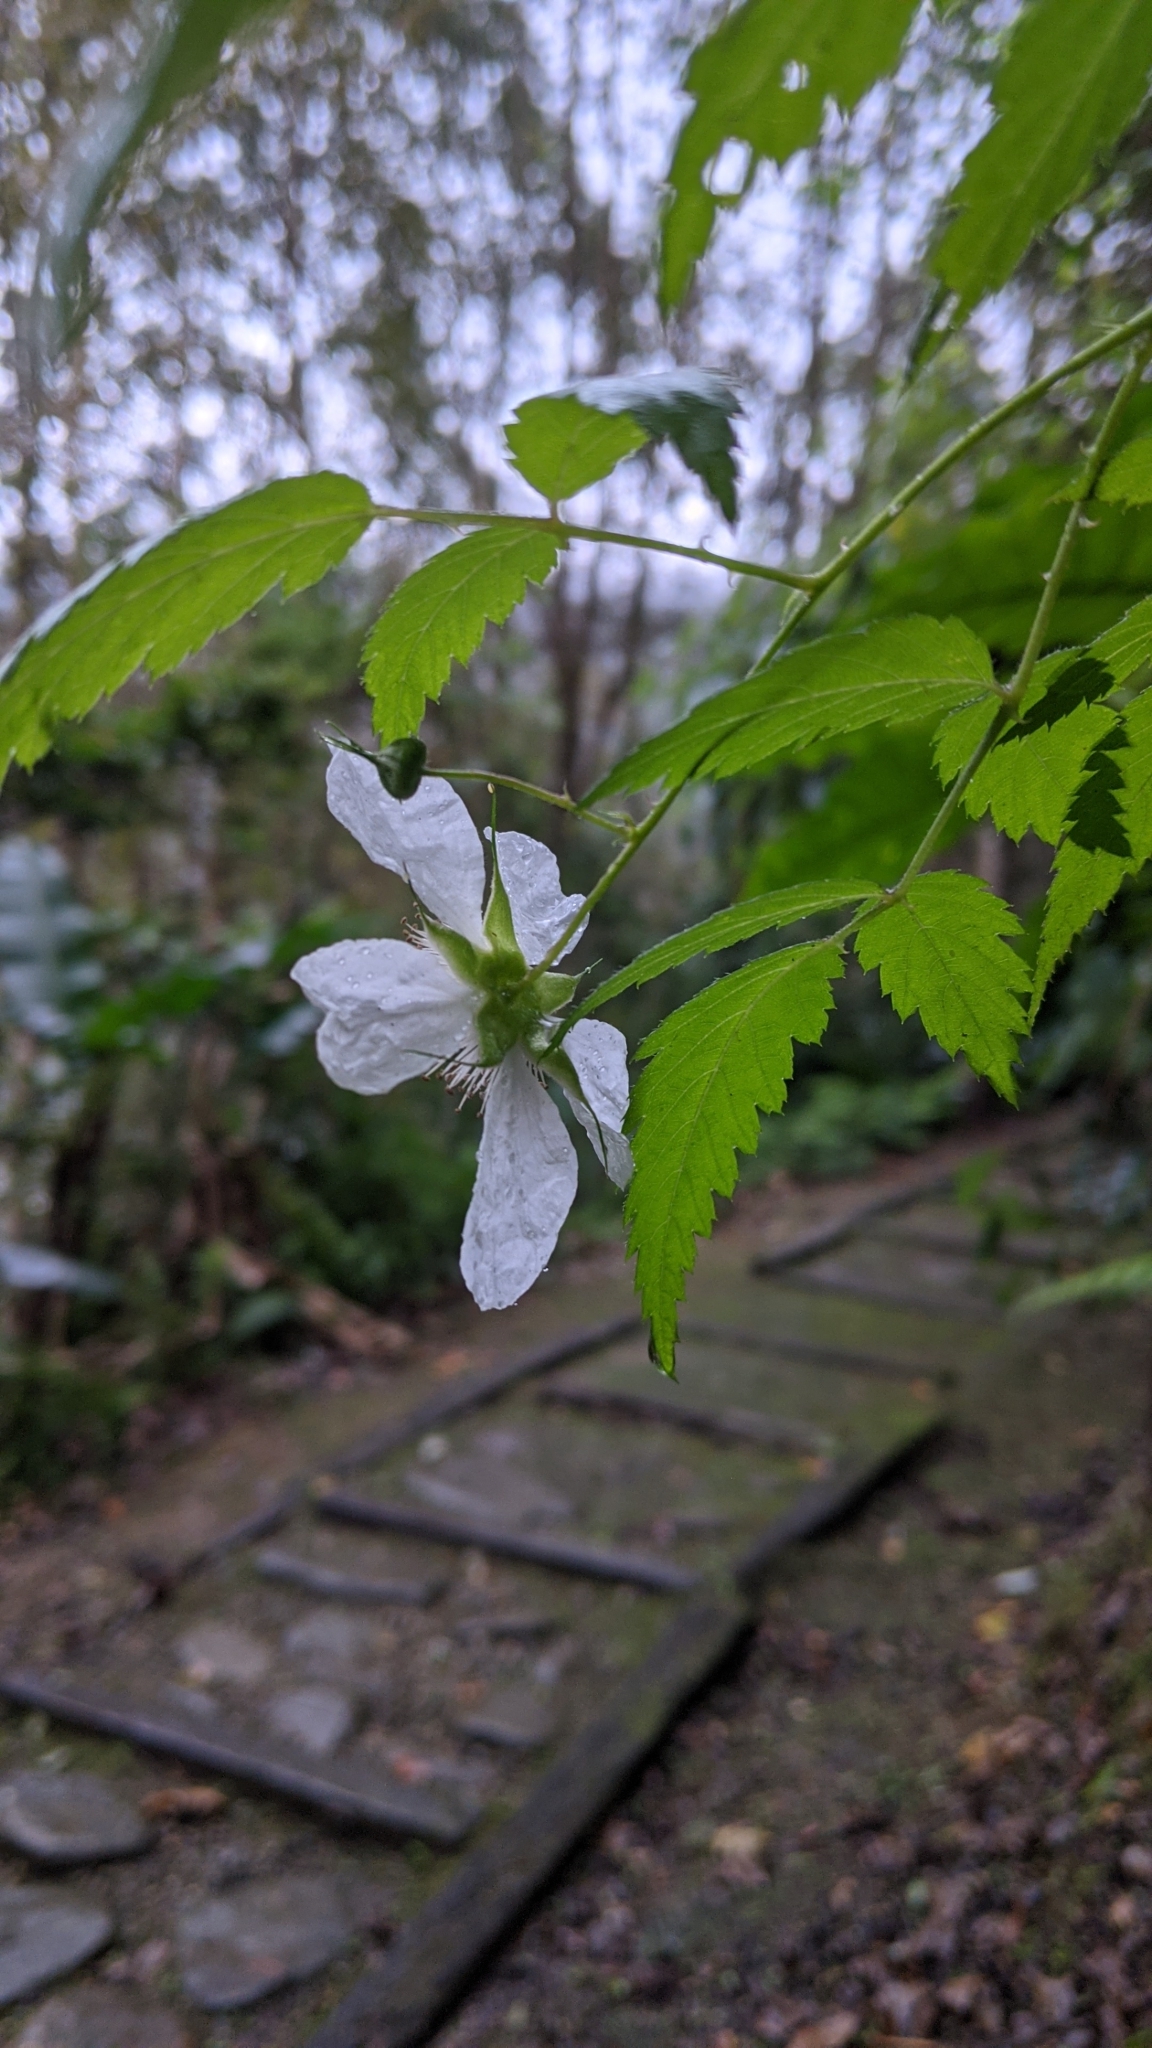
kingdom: Plantae
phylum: Tracheophyta
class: Magnoliopsida
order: Rosales
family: Rosaceae
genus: Rubus
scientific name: Rubus linearifoliolus
